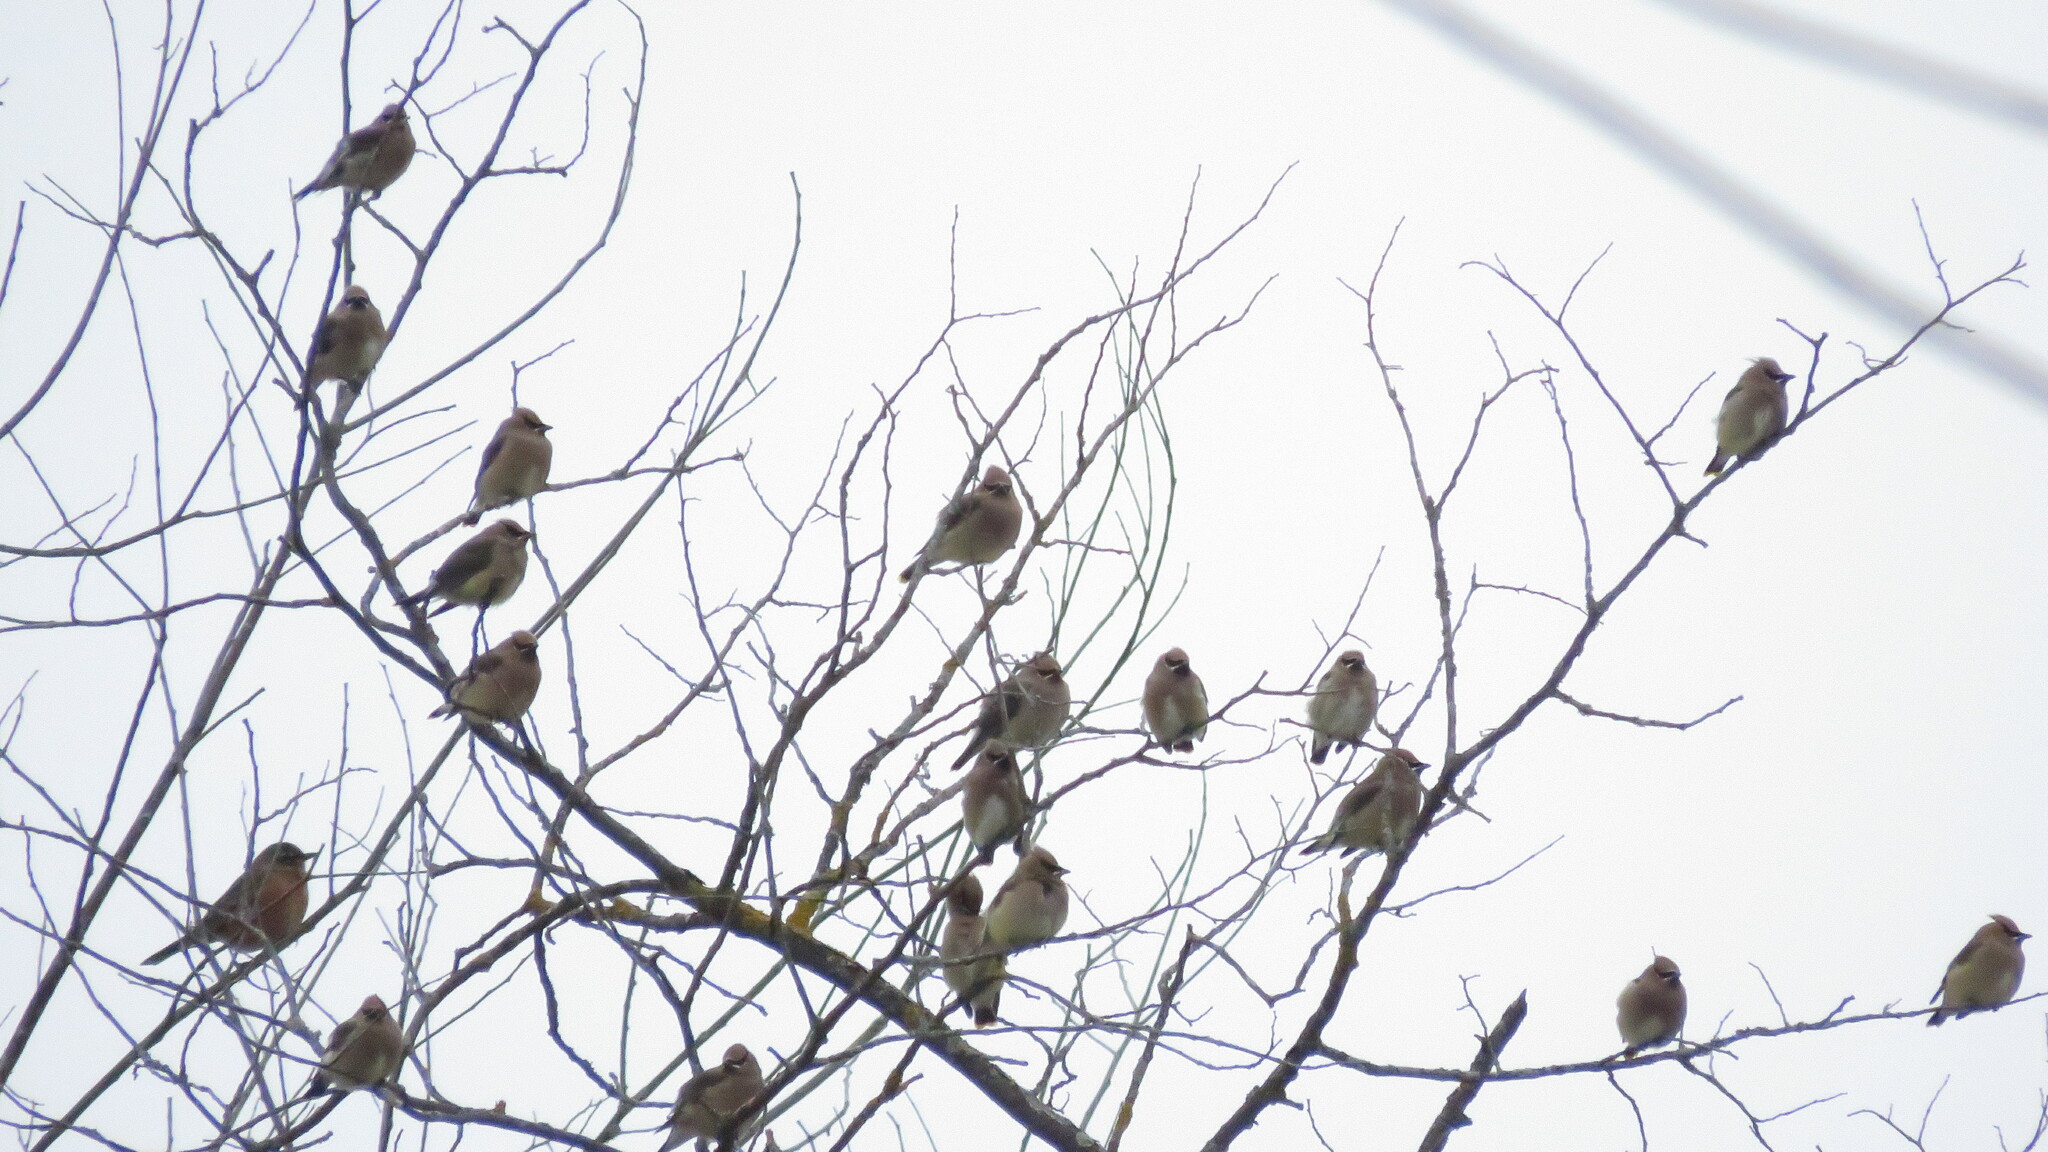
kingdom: Animalia
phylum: Chordata
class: Aves
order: Passeriformes
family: Bombycillidae
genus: Bombycilla
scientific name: Bombycilla cedrorum
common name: Cedar waxwing
